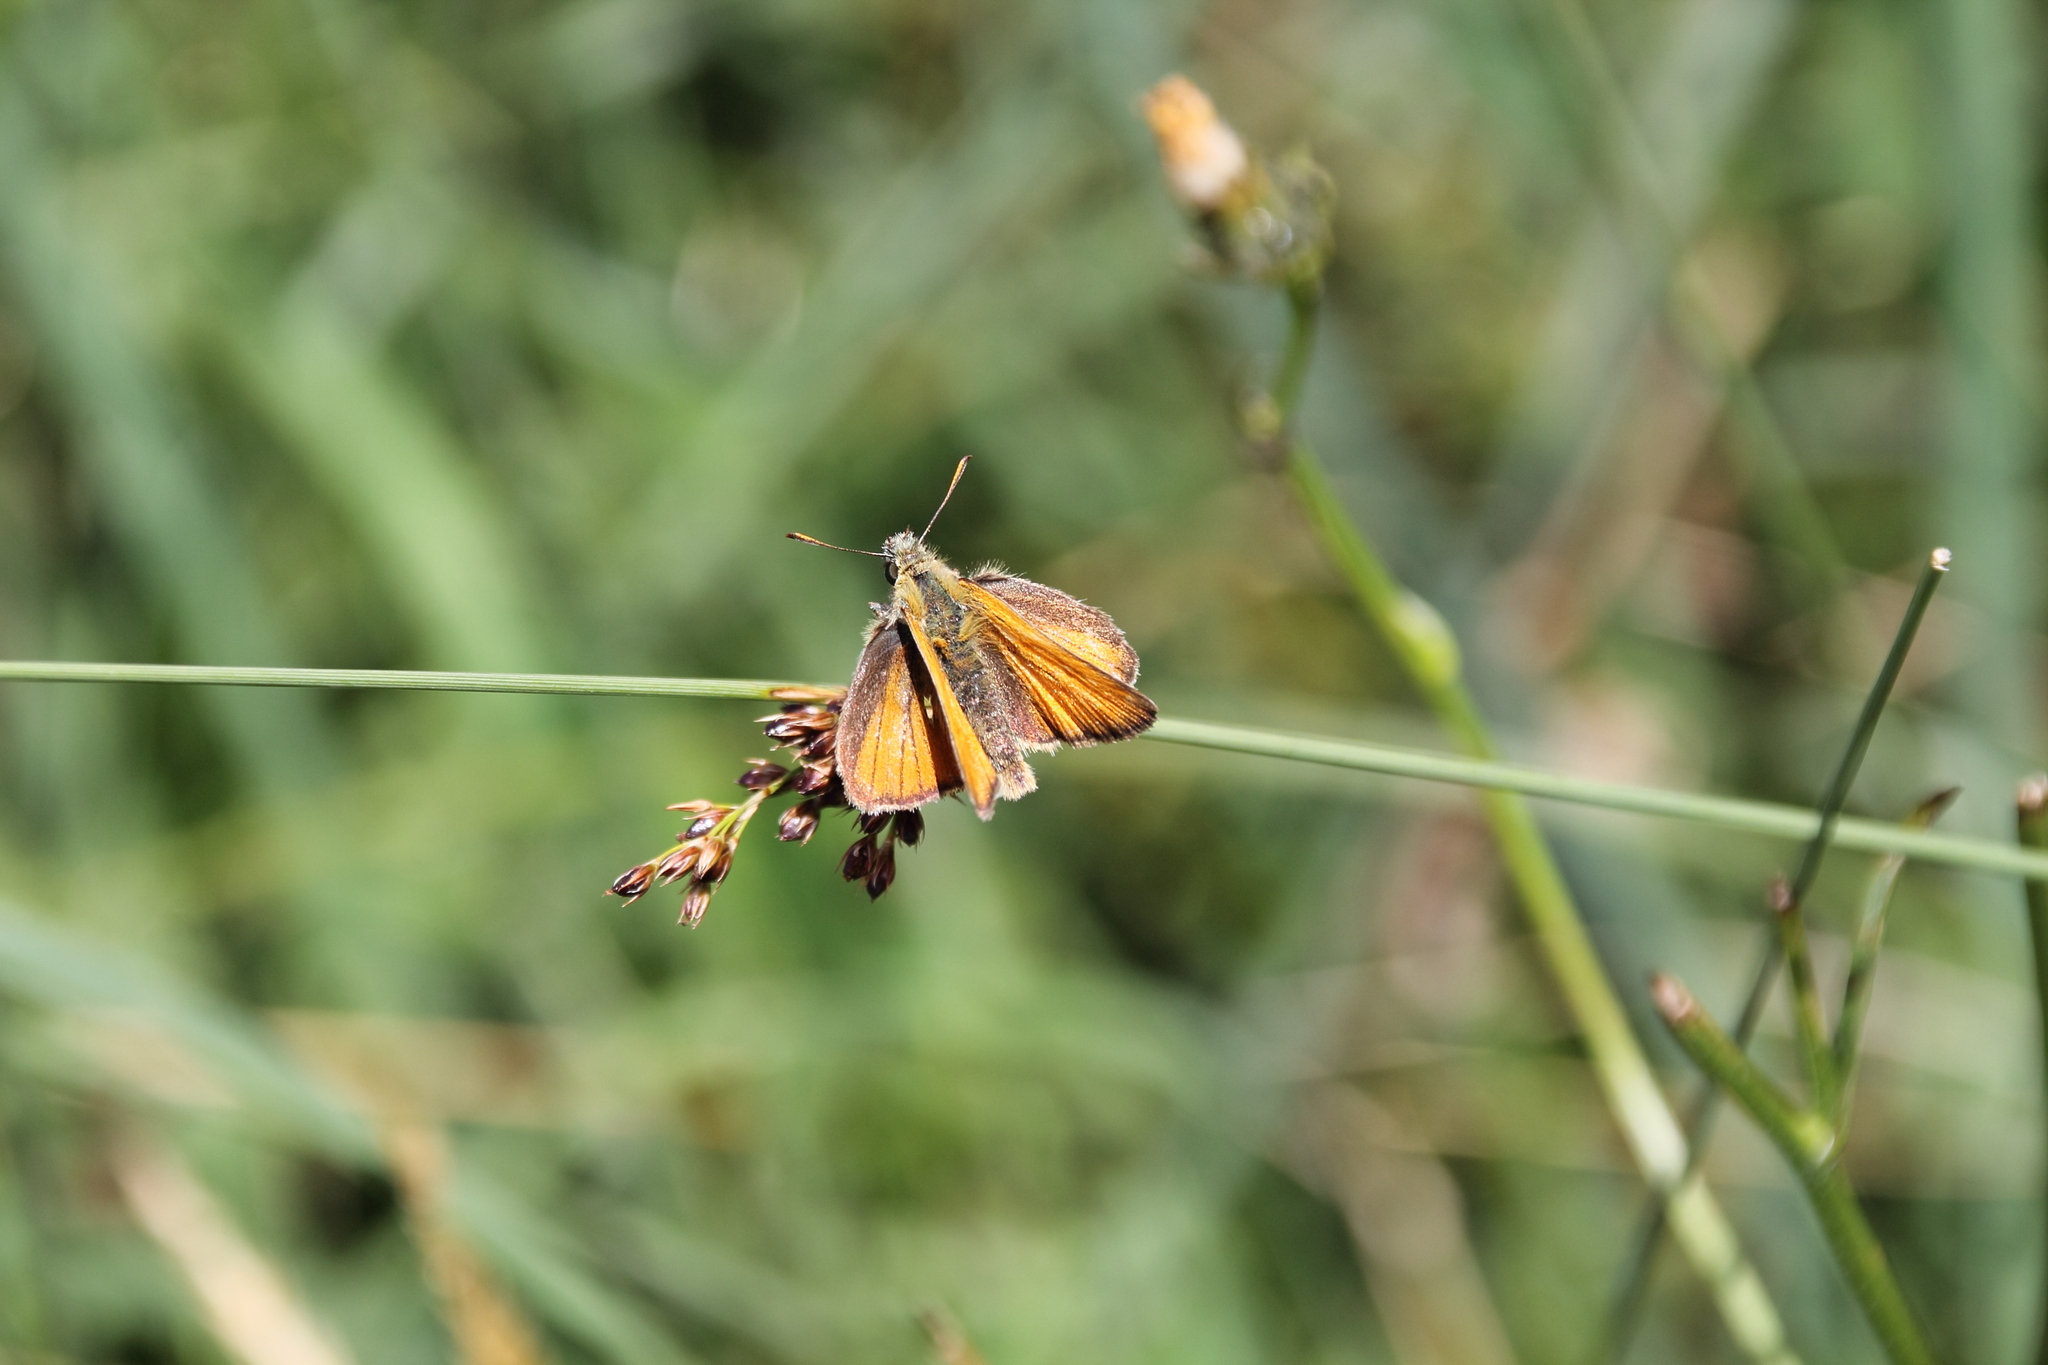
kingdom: Animalia
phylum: Arthropoda
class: Insecta
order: Lepidoptera
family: Hesperiidae
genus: Thymelicus
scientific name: Thymelicus sylvestris
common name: Small skipper
